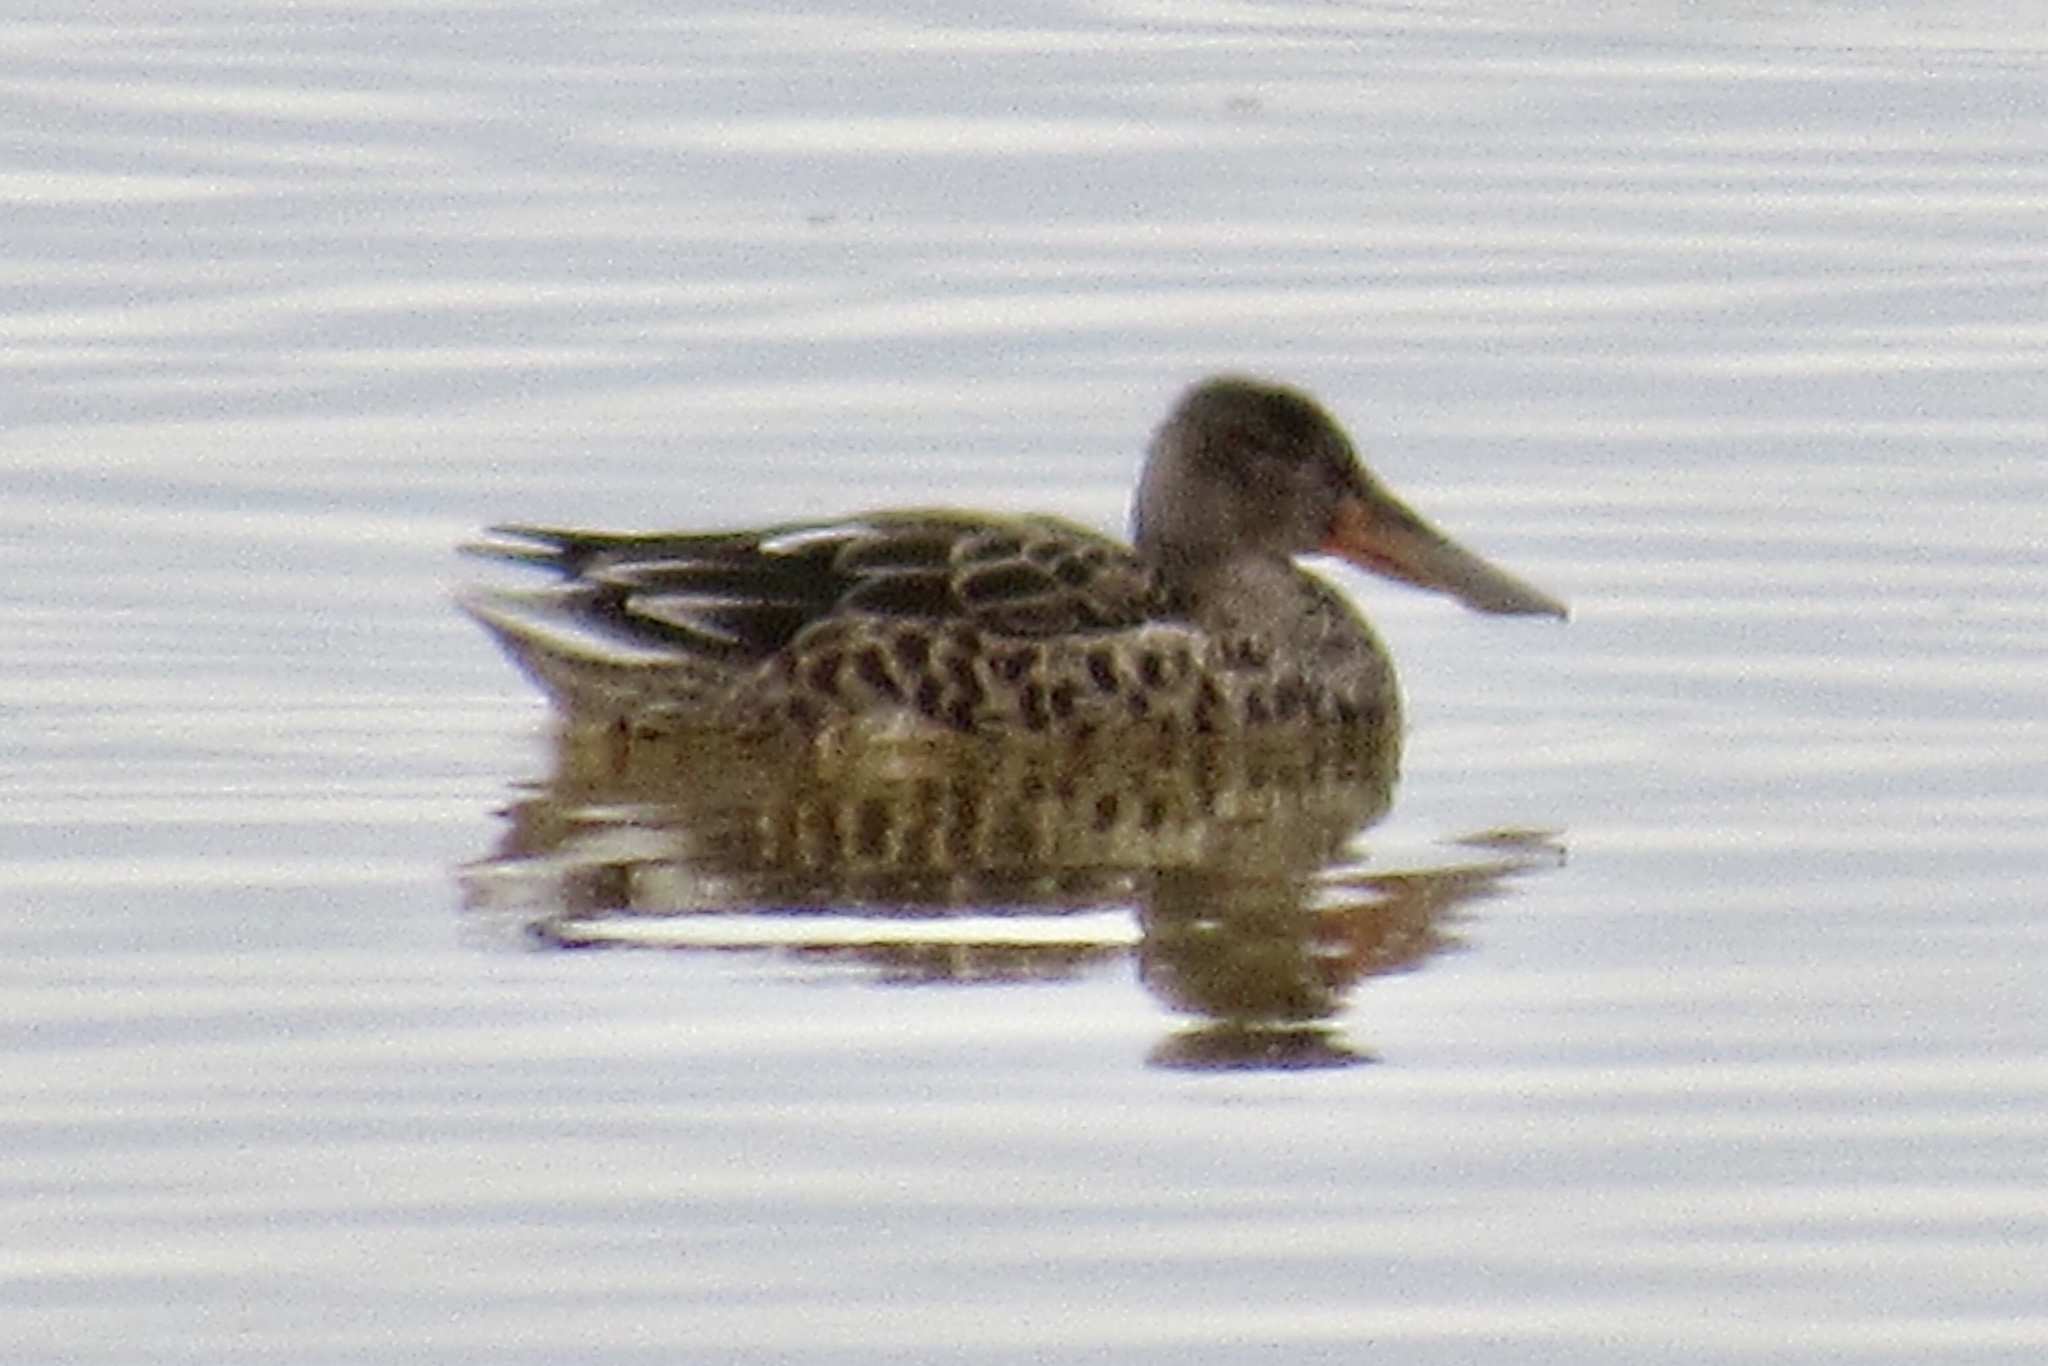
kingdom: Animalia
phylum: Chordata
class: Aves
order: Anseriformes
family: Anatidae
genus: Spatula
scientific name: Spatula clypeata
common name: Northern shoveler
